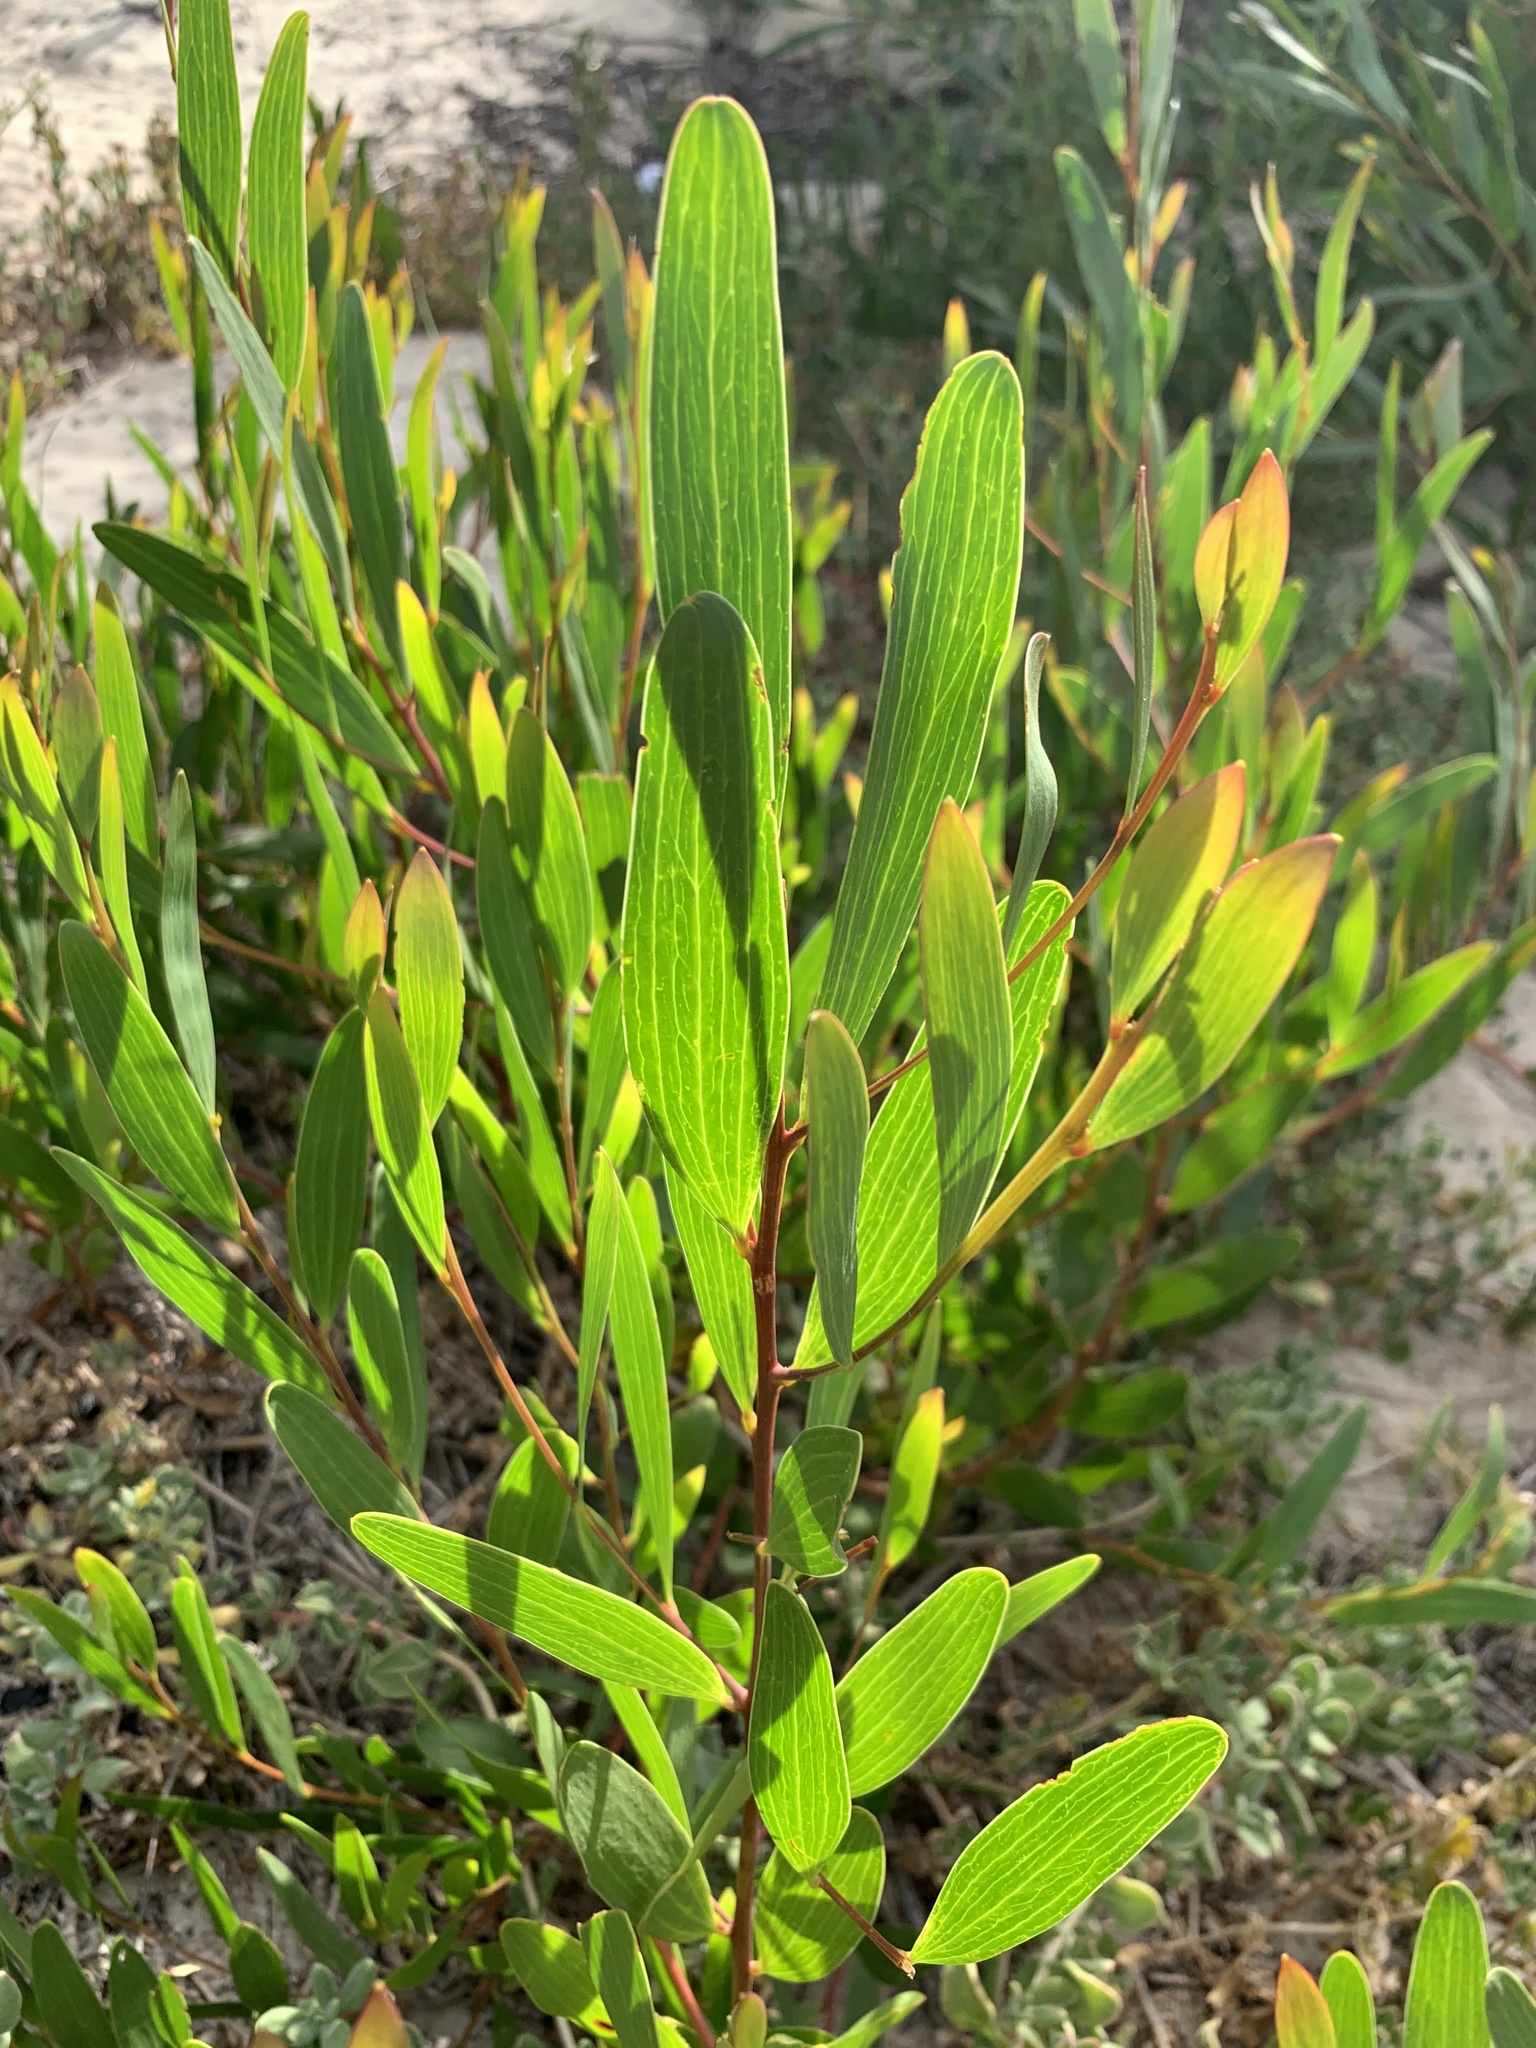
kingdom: Plantae
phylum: Tracheophyta
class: Magnoliopsida
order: Fabales
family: Fabaceae
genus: Acacia
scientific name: Acacia cyclops
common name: Coastal wattle
